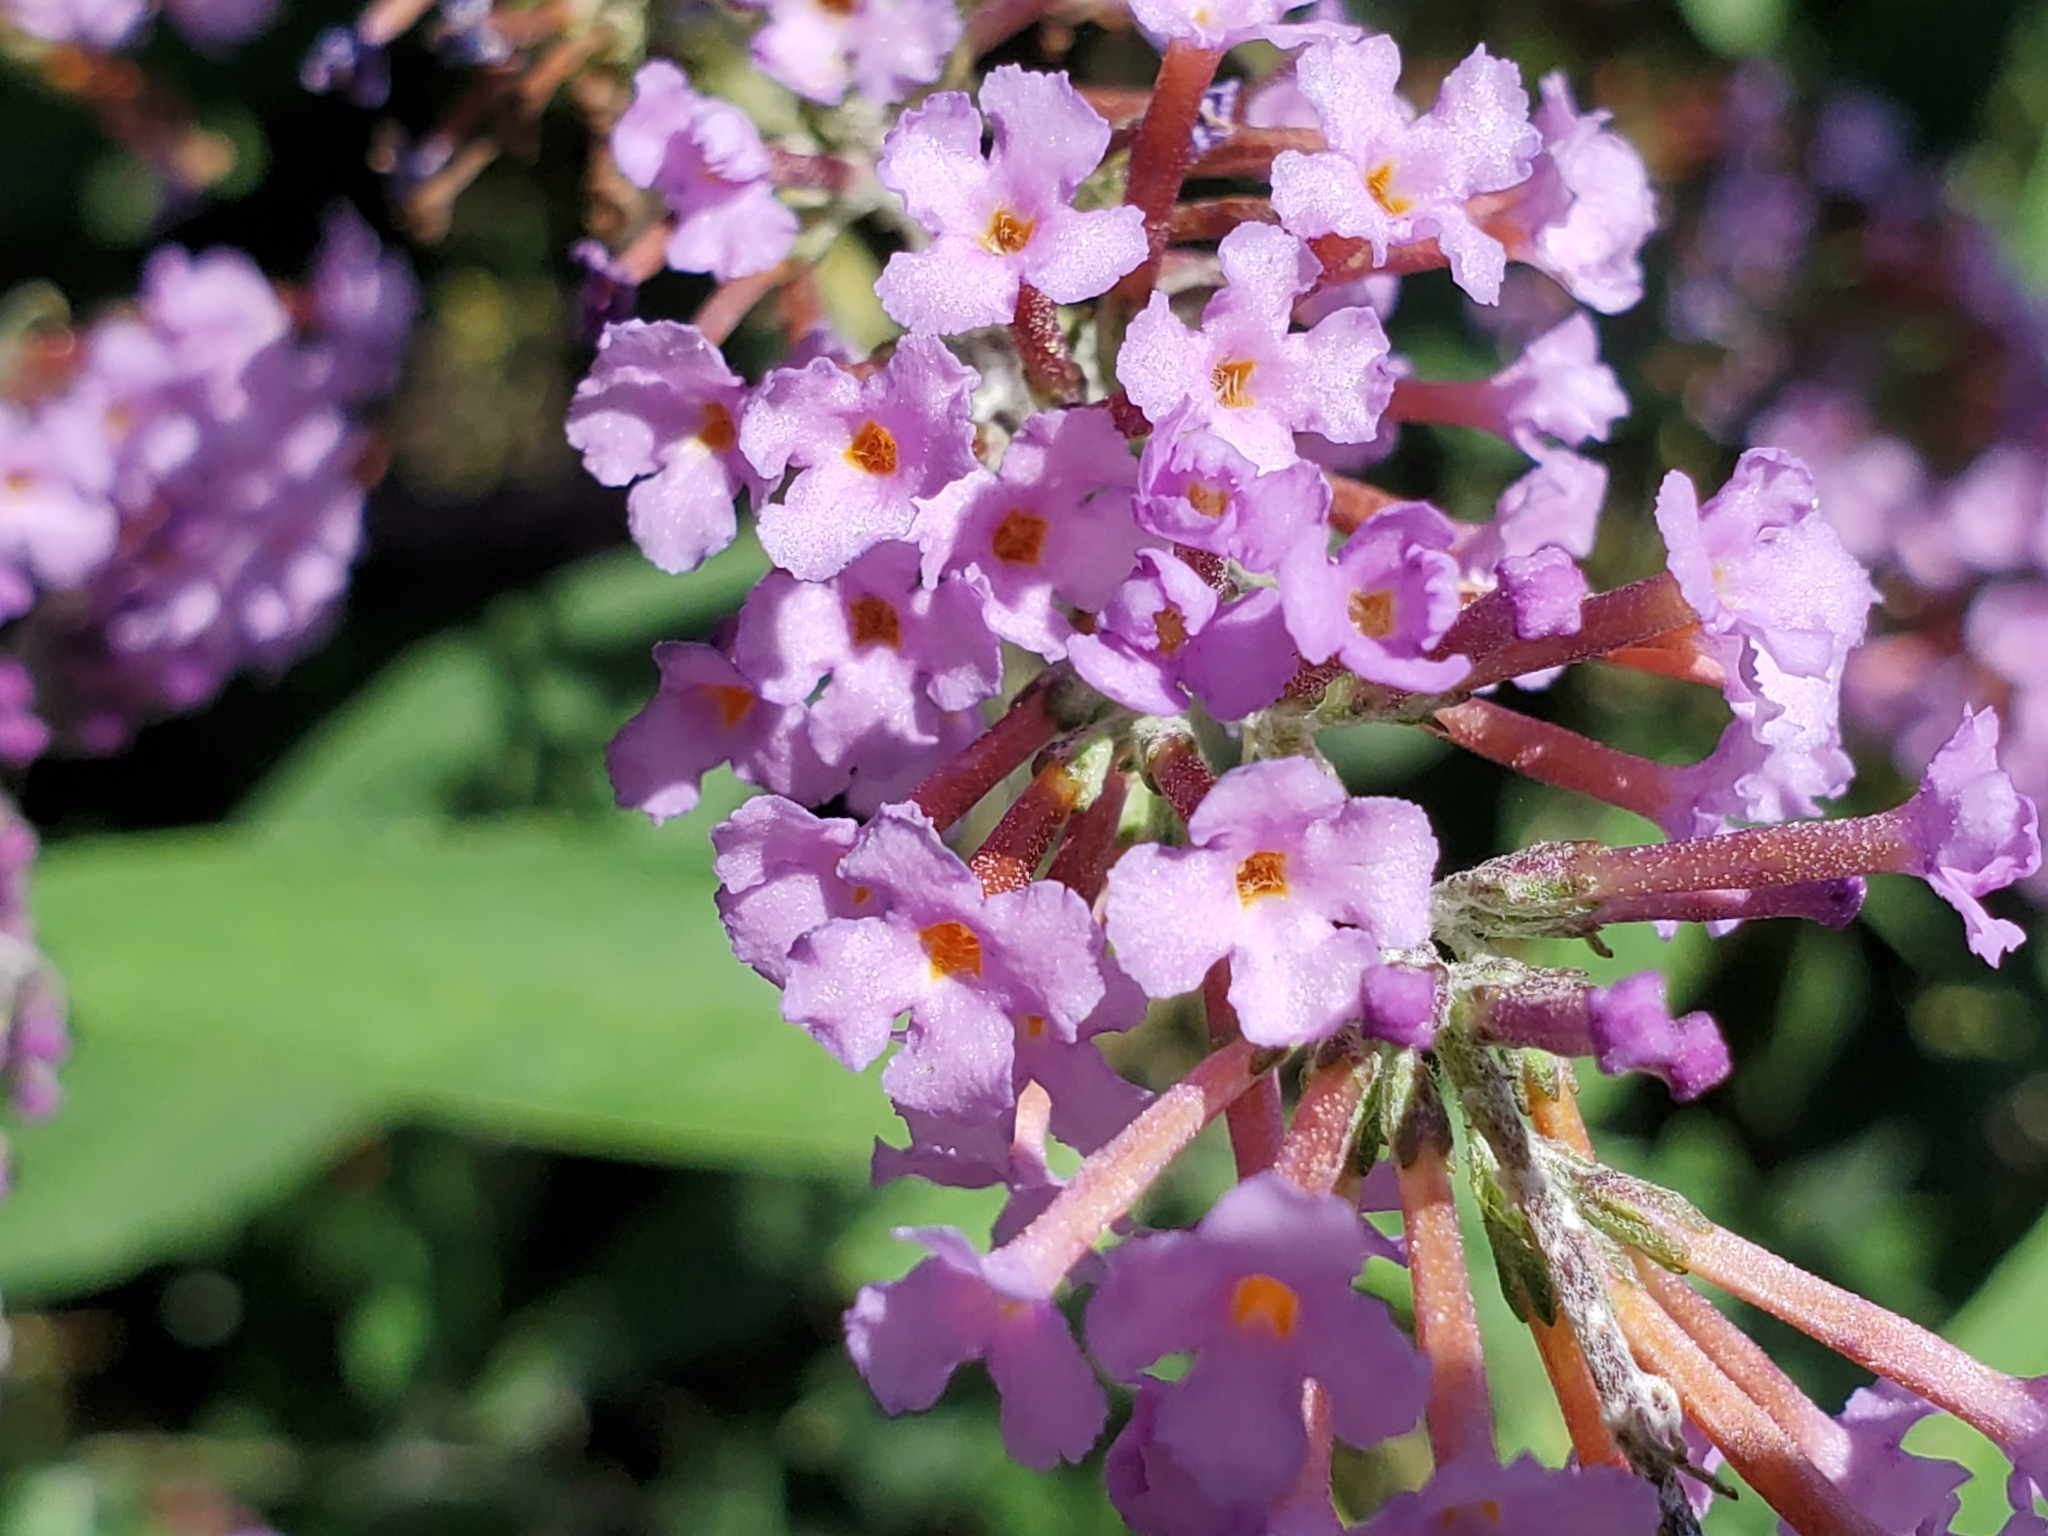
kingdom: Plantae
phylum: Tracheophyta
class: Magnoliopsida
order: Lamiales
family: Scrophulariaceae
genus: Buddleja
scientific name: Buddleja davidii
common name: Butterfly-bush
